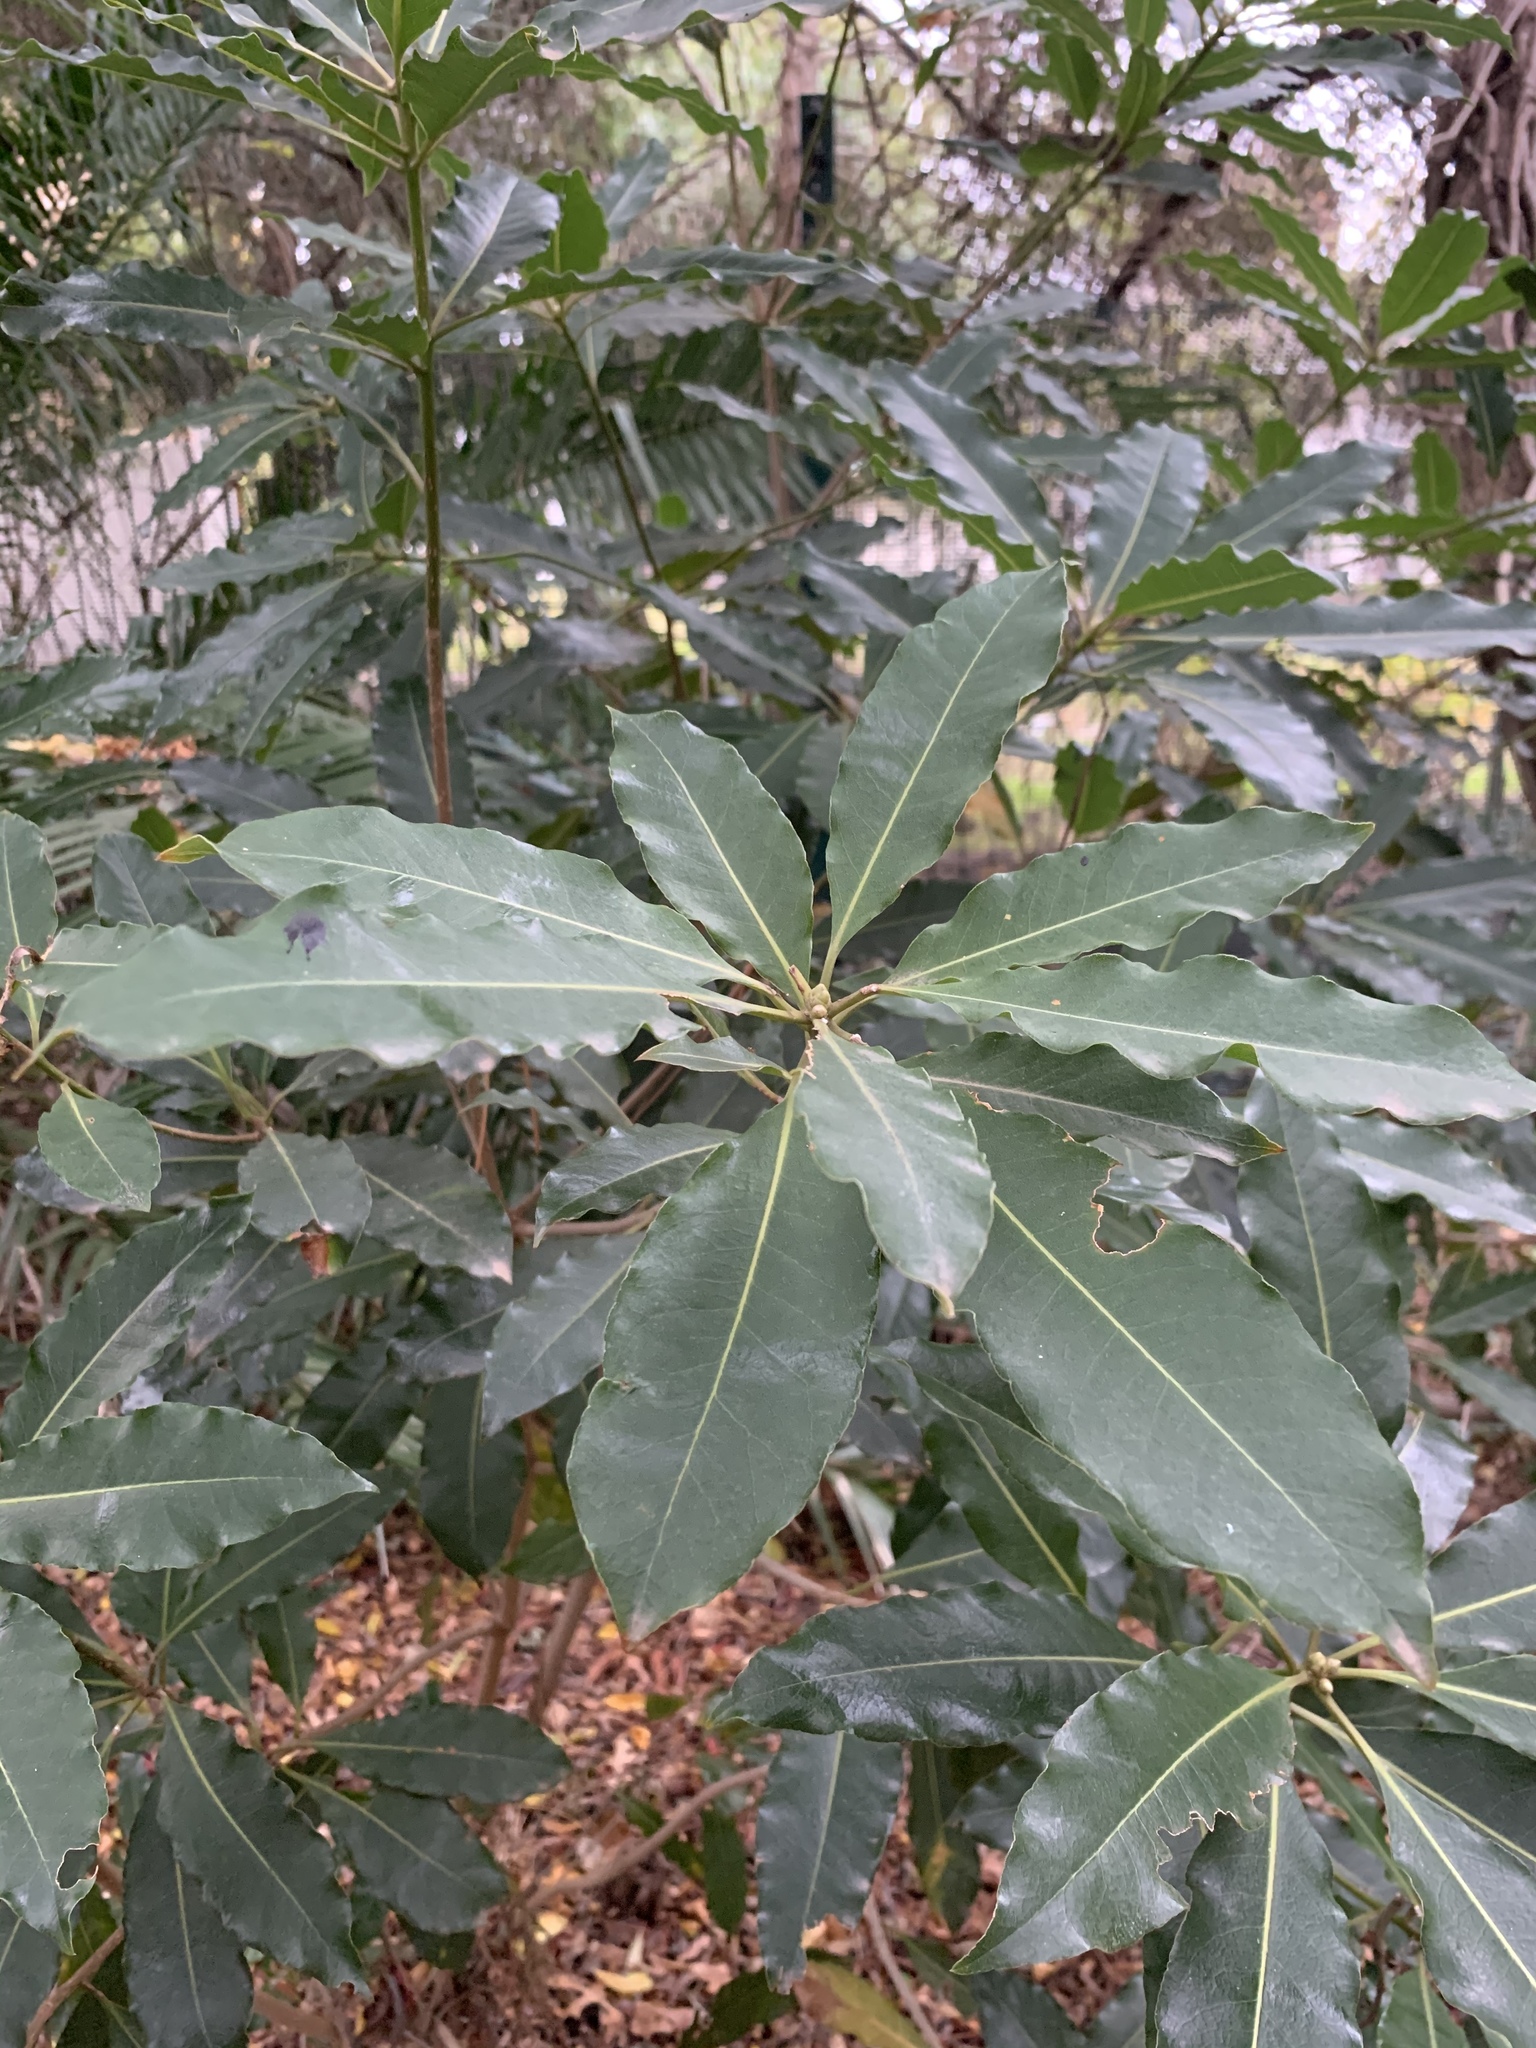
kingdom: Plantae
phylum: Tracheophyta
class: Magnoliopsida
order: Apiales
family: Pittosporaceae
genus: Pittosporum
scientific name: Pittosporum undulatum
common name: Australian cheesewood
